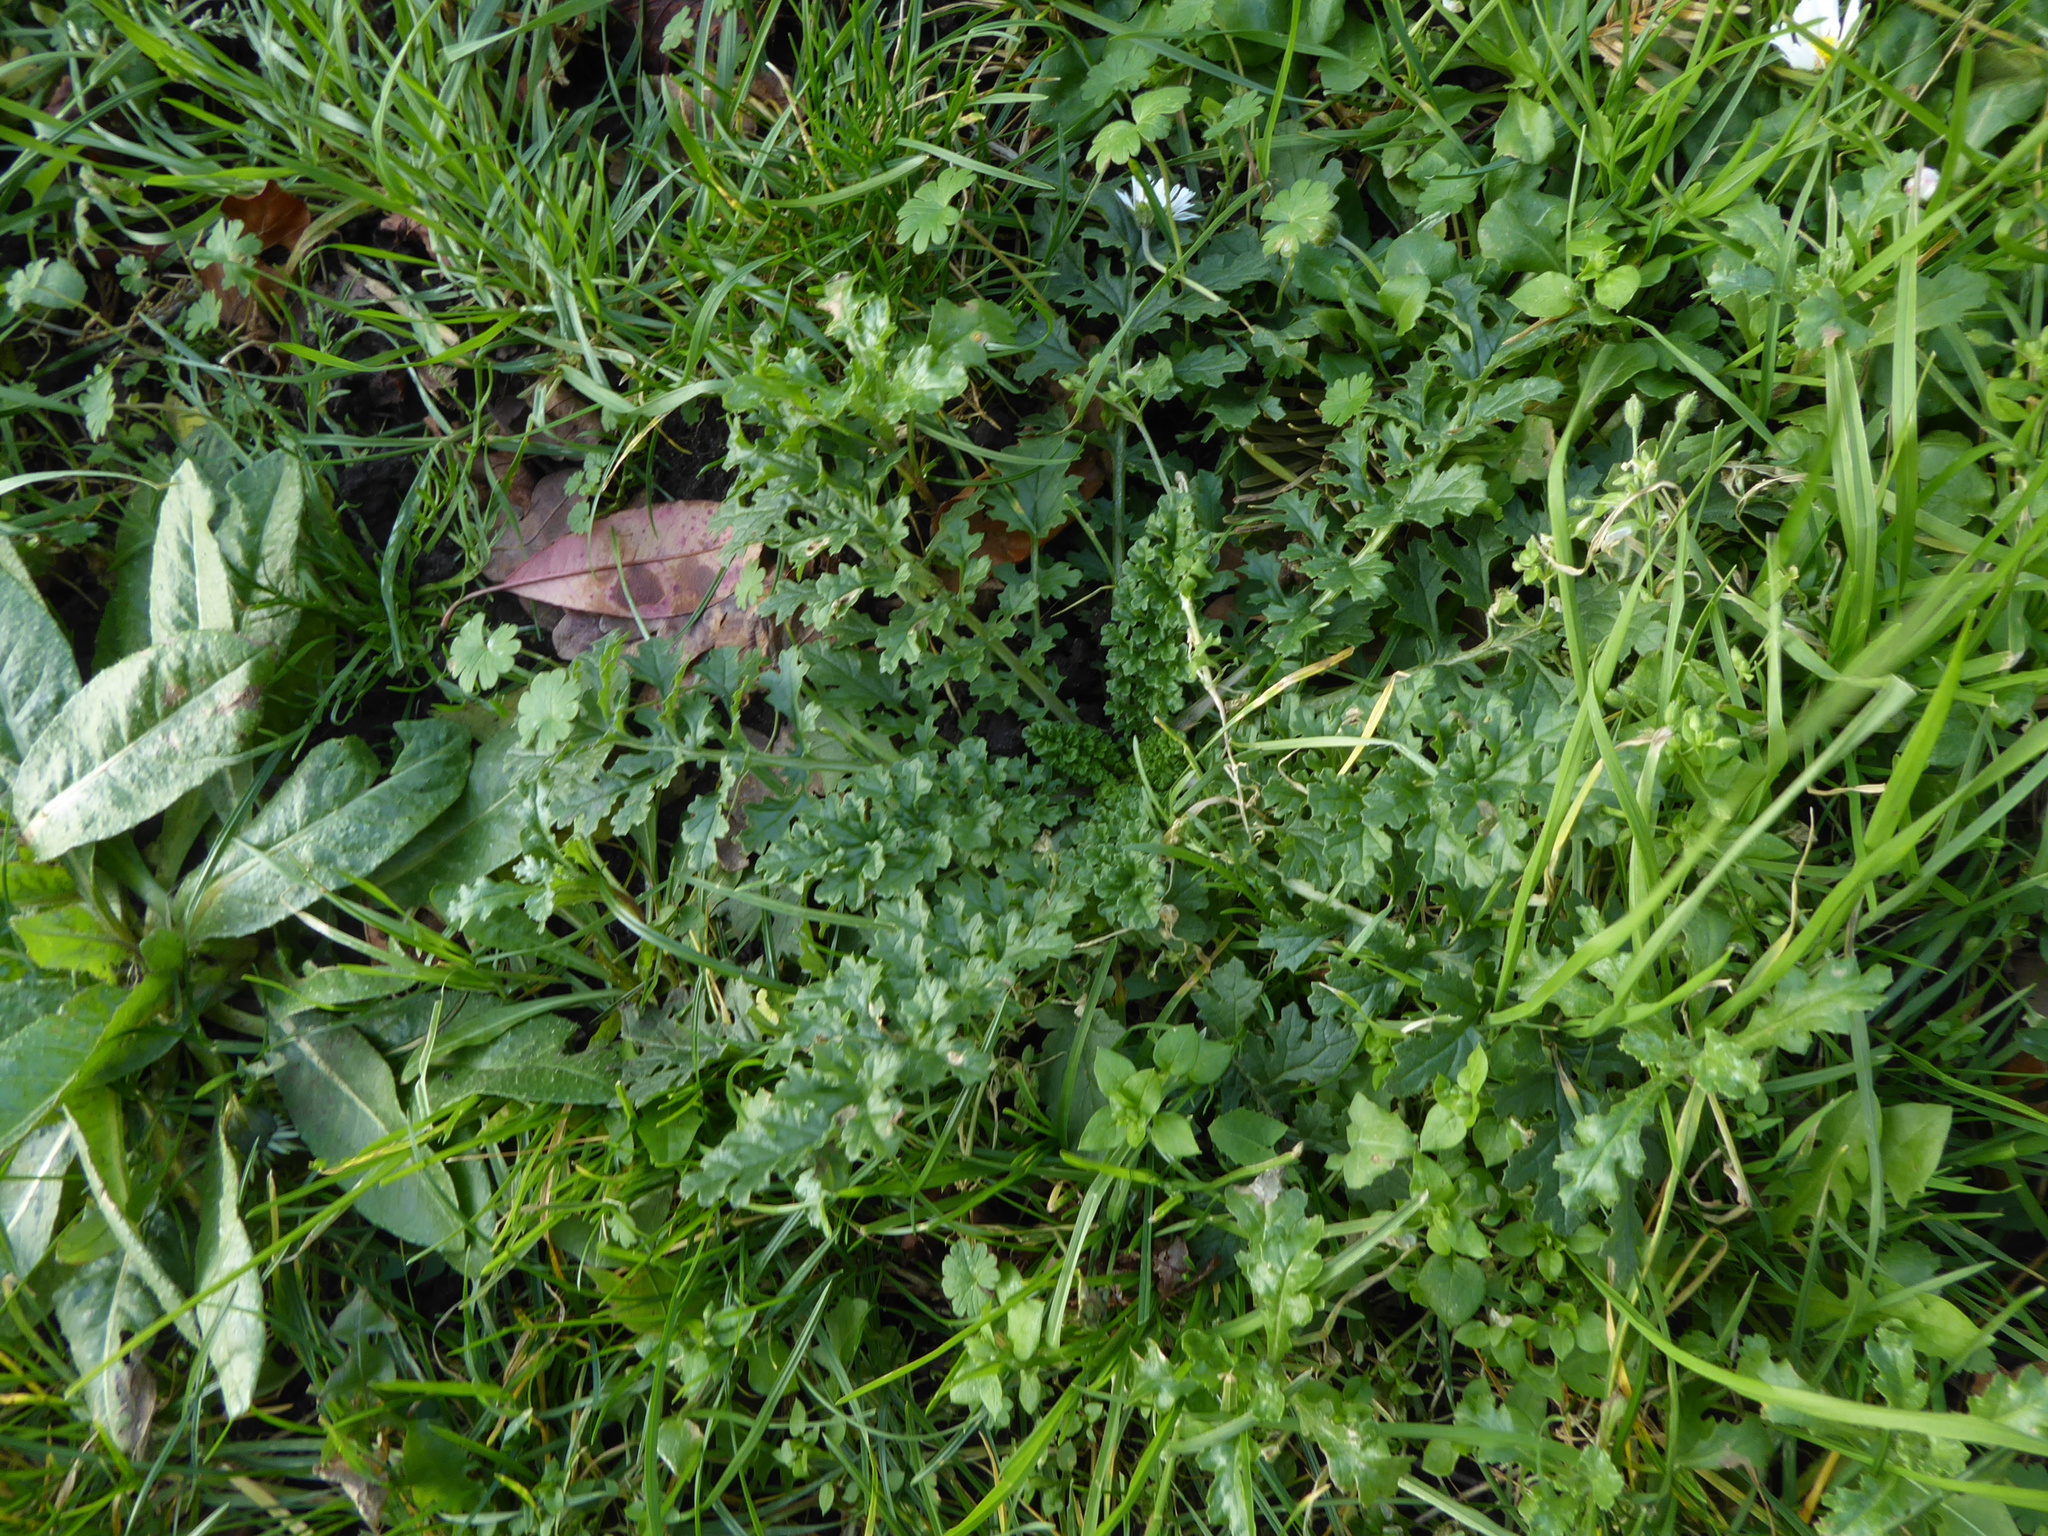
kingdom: Plantae
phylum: Tracheophyta
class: Magnoliopsida
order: Asterales
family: Asteraceae
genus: Jacobaea
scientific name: Jacobaea vulgaris
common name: Stinking willie
